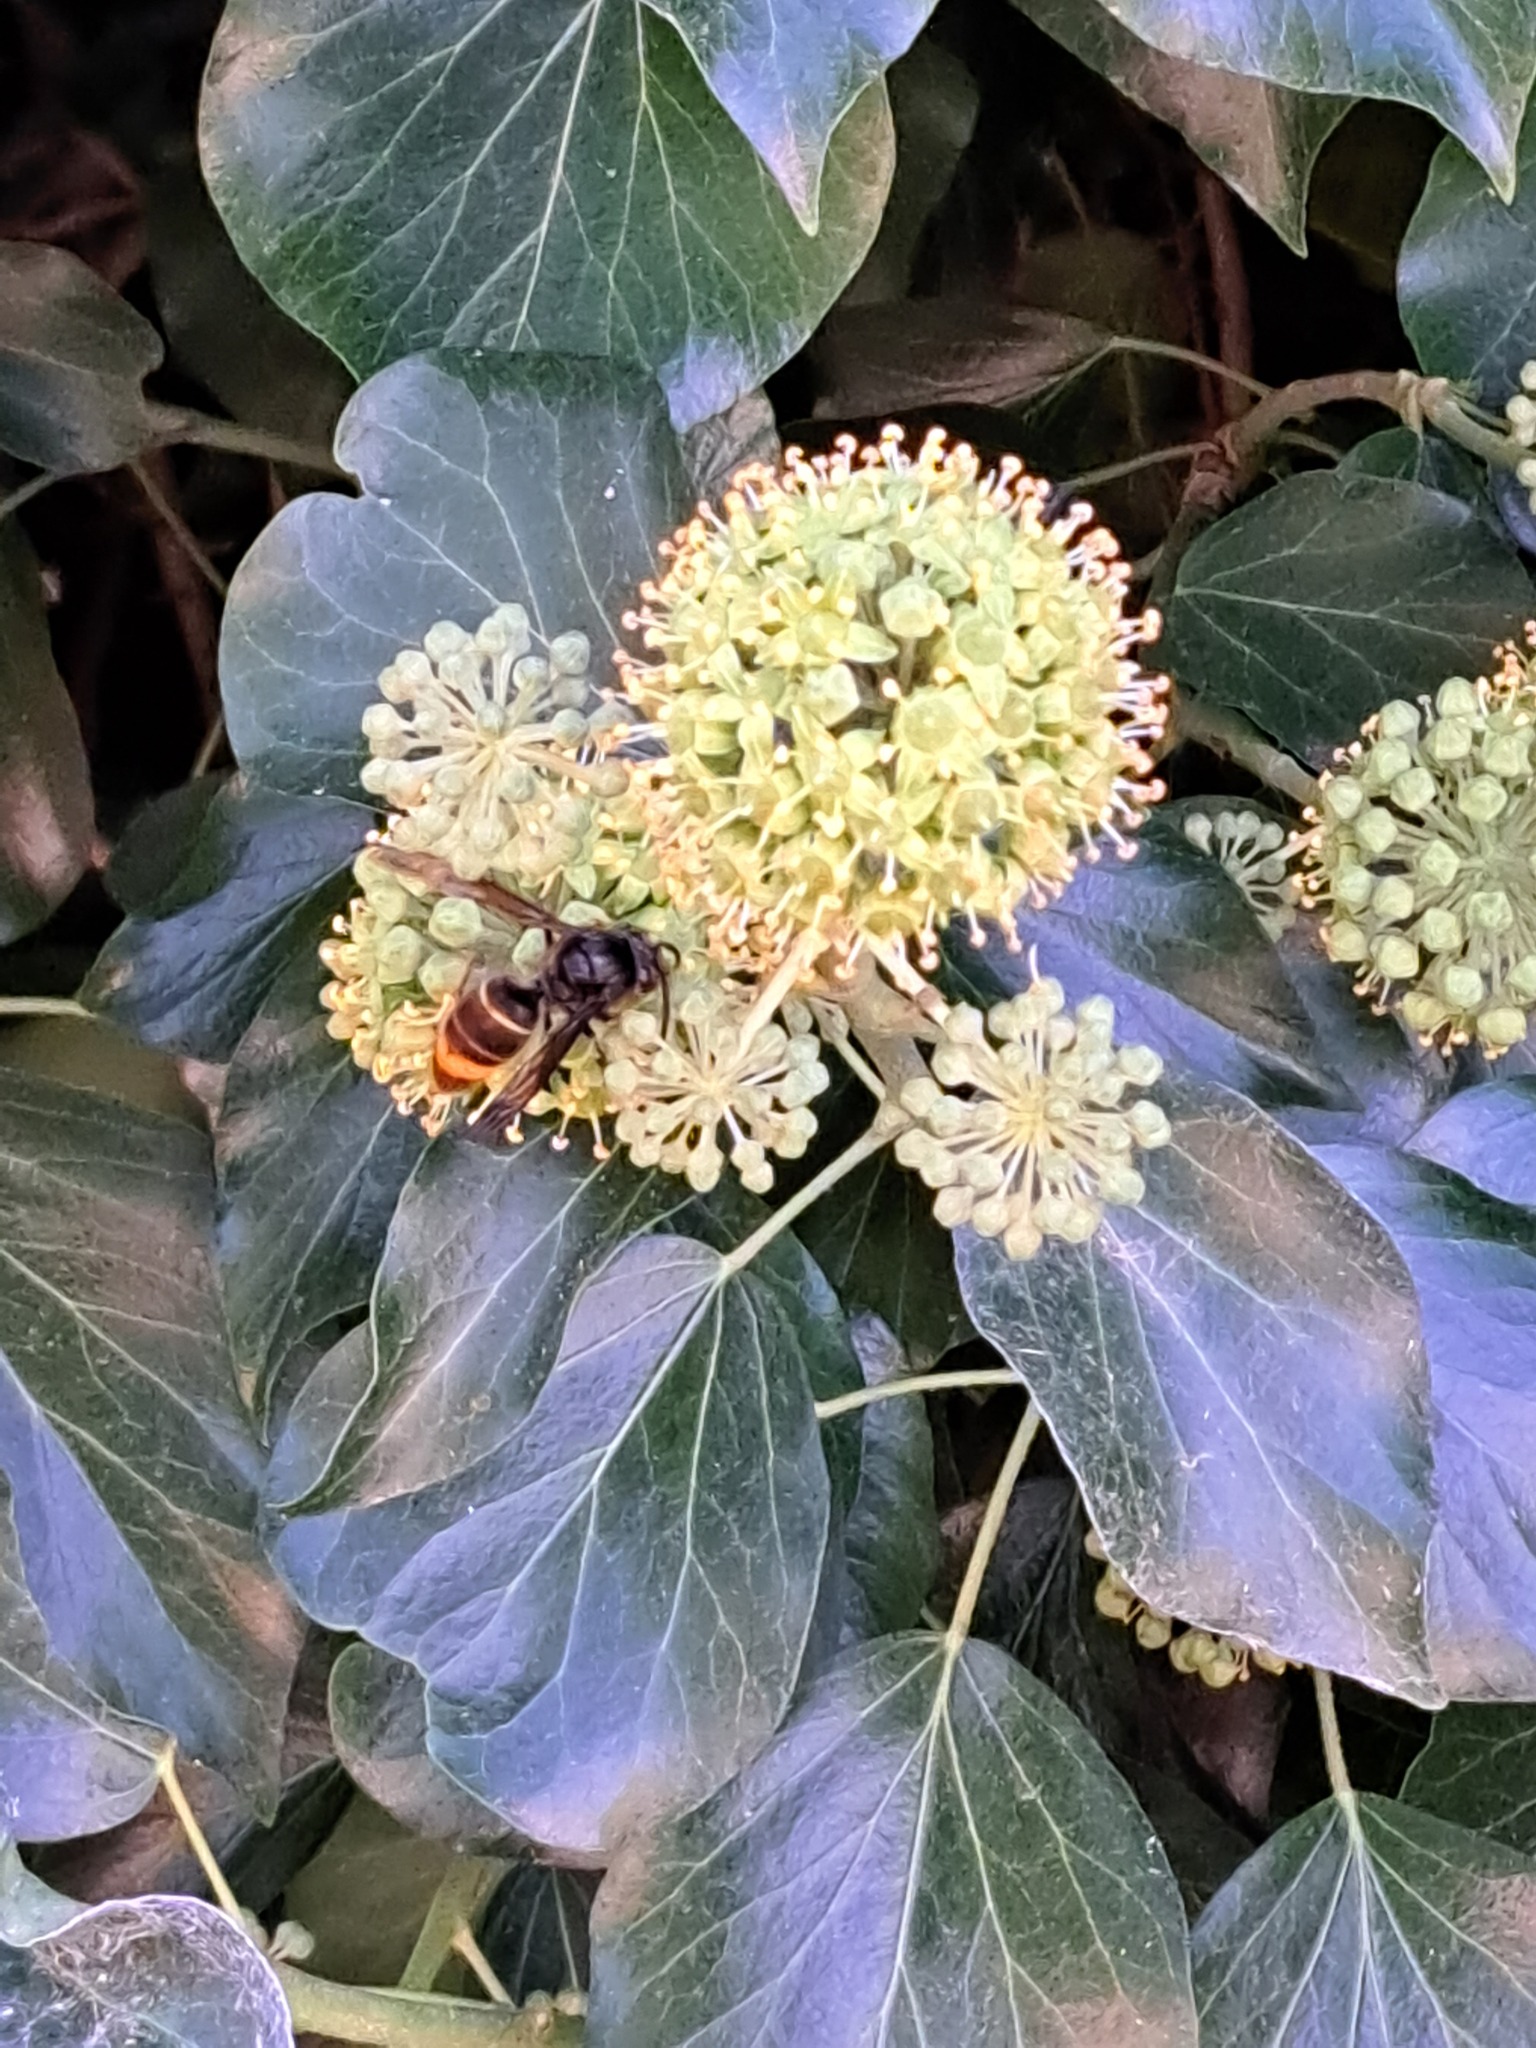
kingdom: Animalia
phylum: Arthropoda
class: Insecta
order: Hymenoptera
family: Vespidae
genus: Vespa
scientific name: Vespa velutina
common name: Asian hornet
